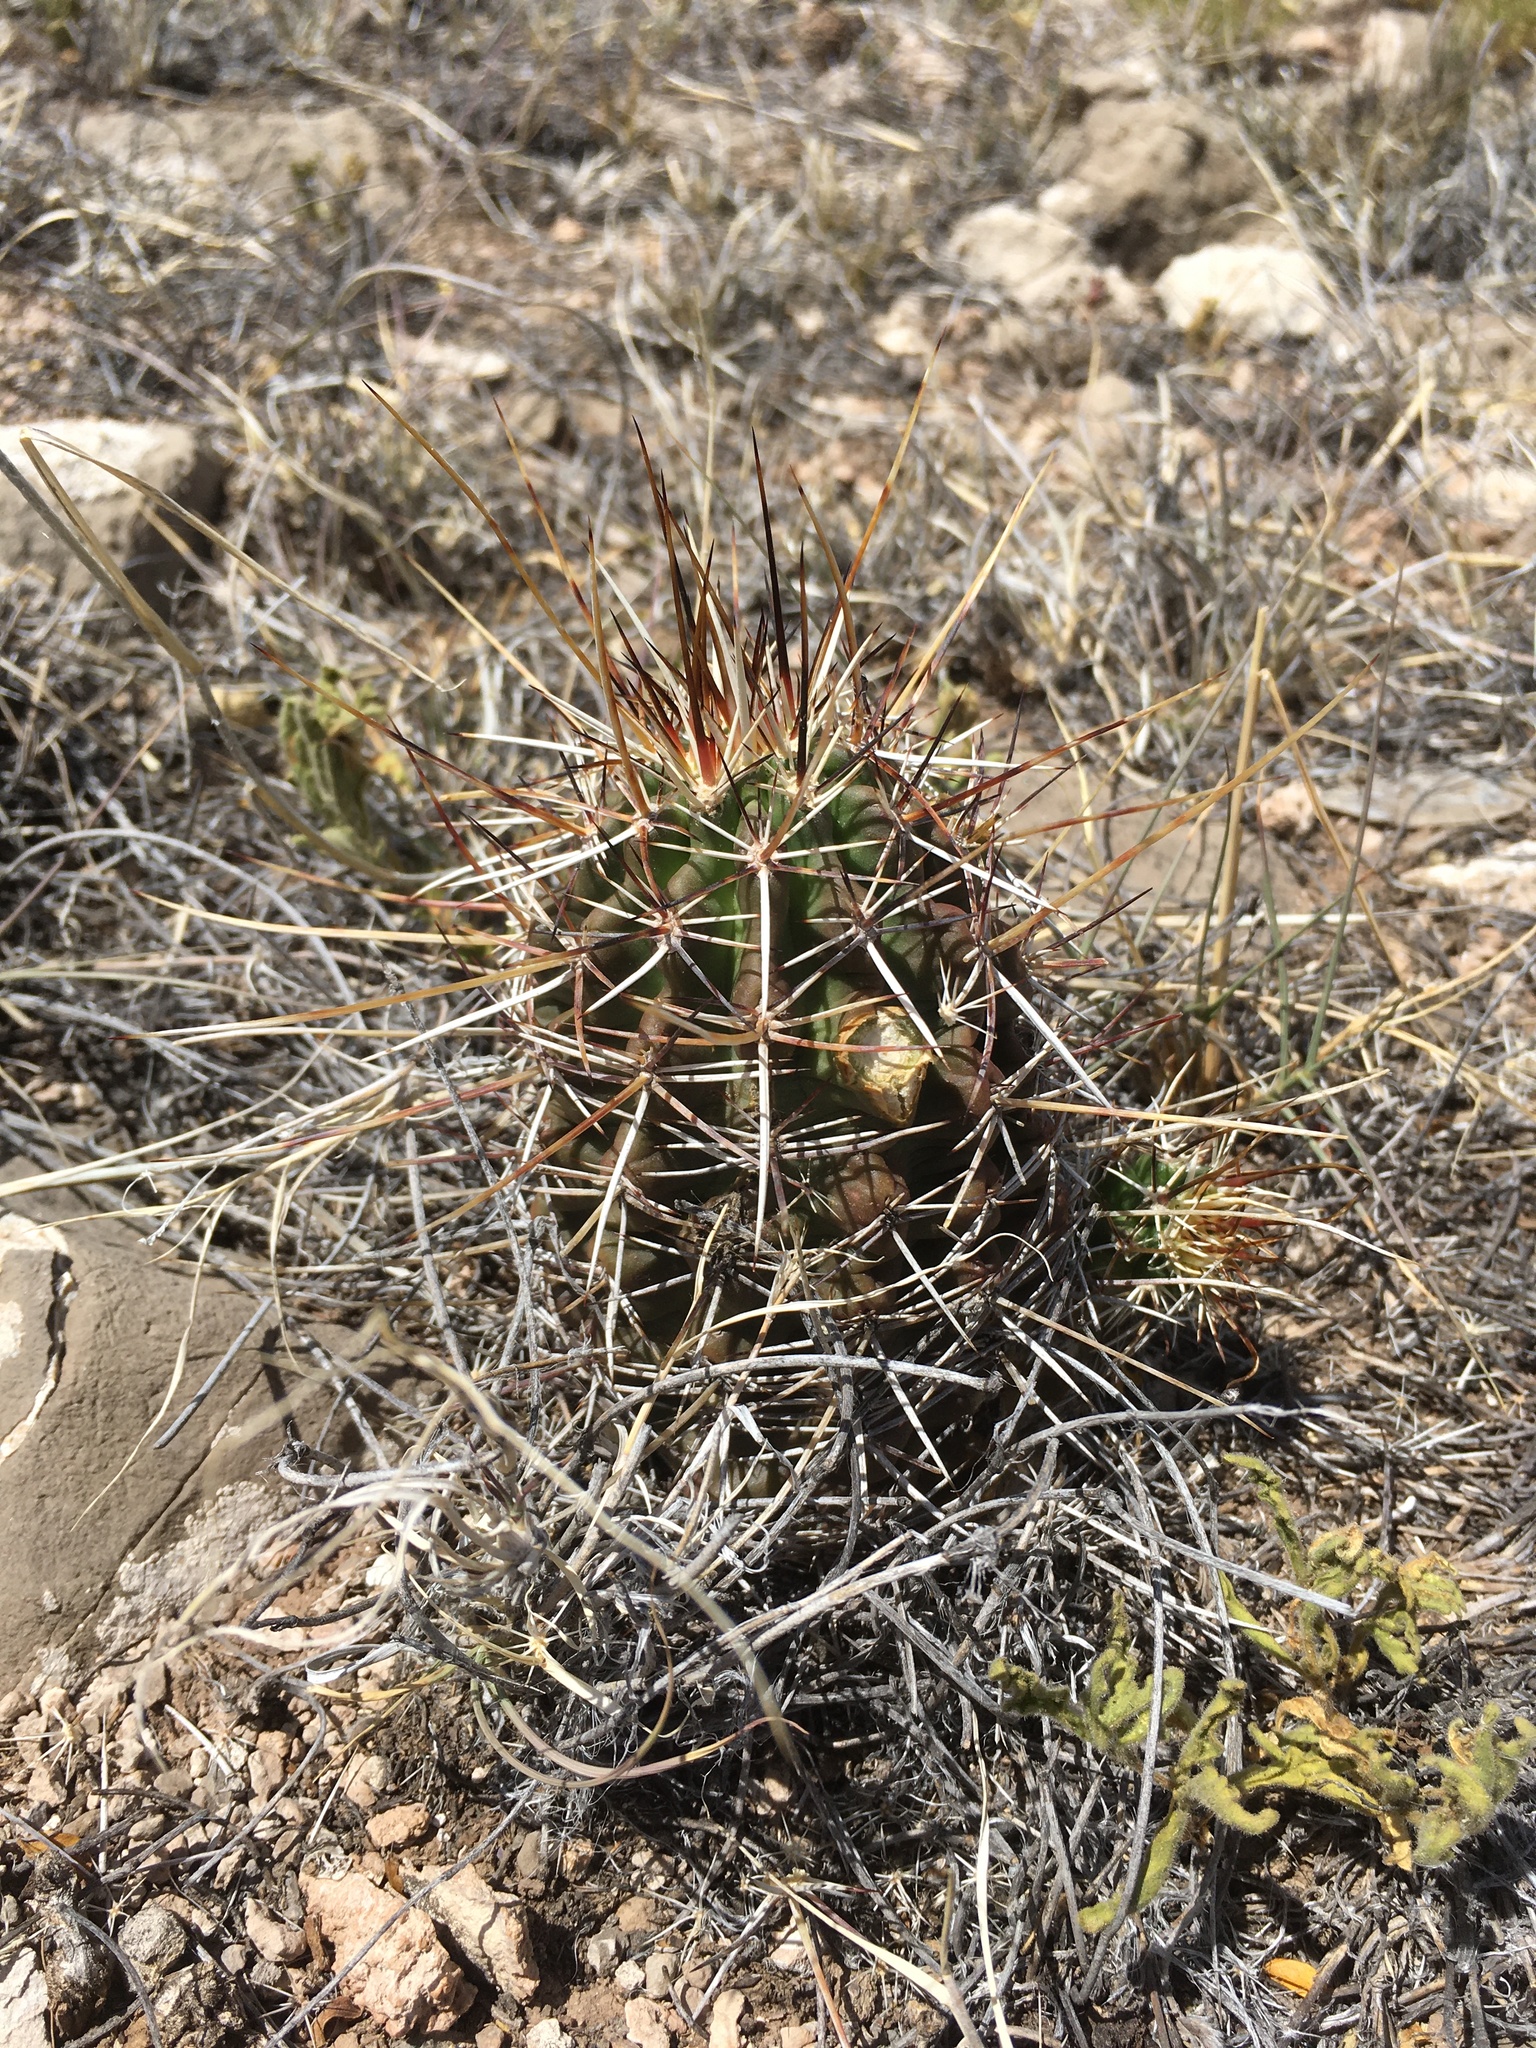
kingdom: Plantae
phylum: Tracheophyta
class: Magnoliopsida
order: Caryophyllales
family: Cactaceae
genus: Echinocereus
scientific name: Echinocereus fendleri
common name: Fendler's hedgehog cactus
